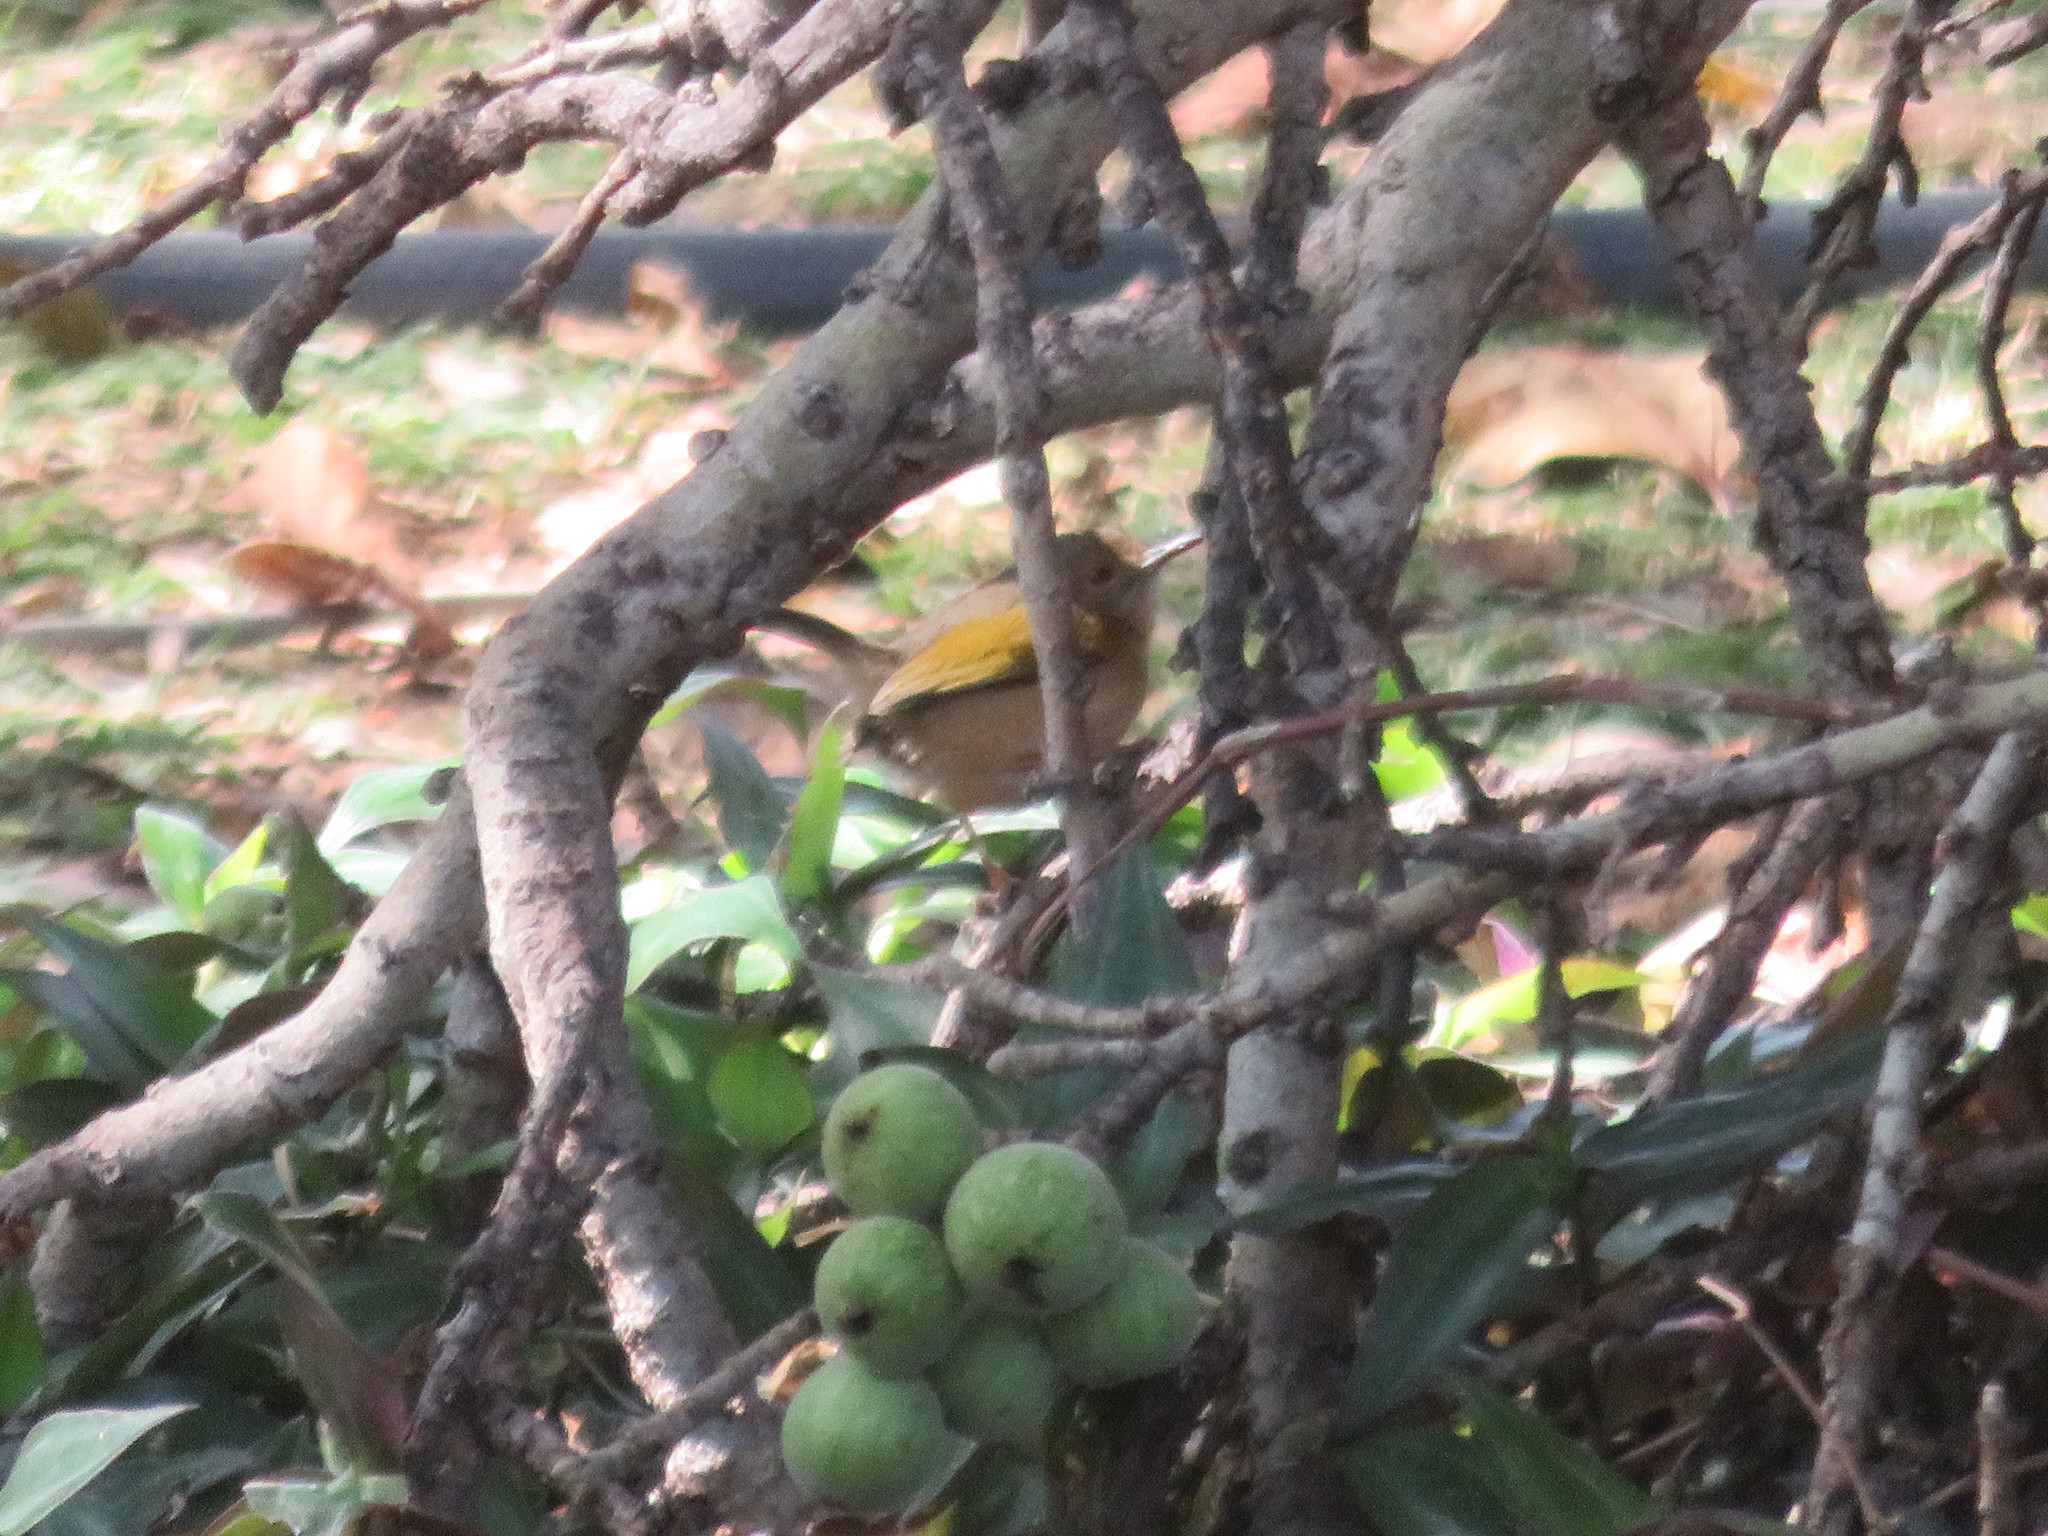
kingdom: Animalia
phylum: Chordata
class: Aves
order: Passeriformes
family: Cisticolidae
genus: Camaroptera
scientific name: Camaroptera brachyura
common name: Green-backed camaroptera
